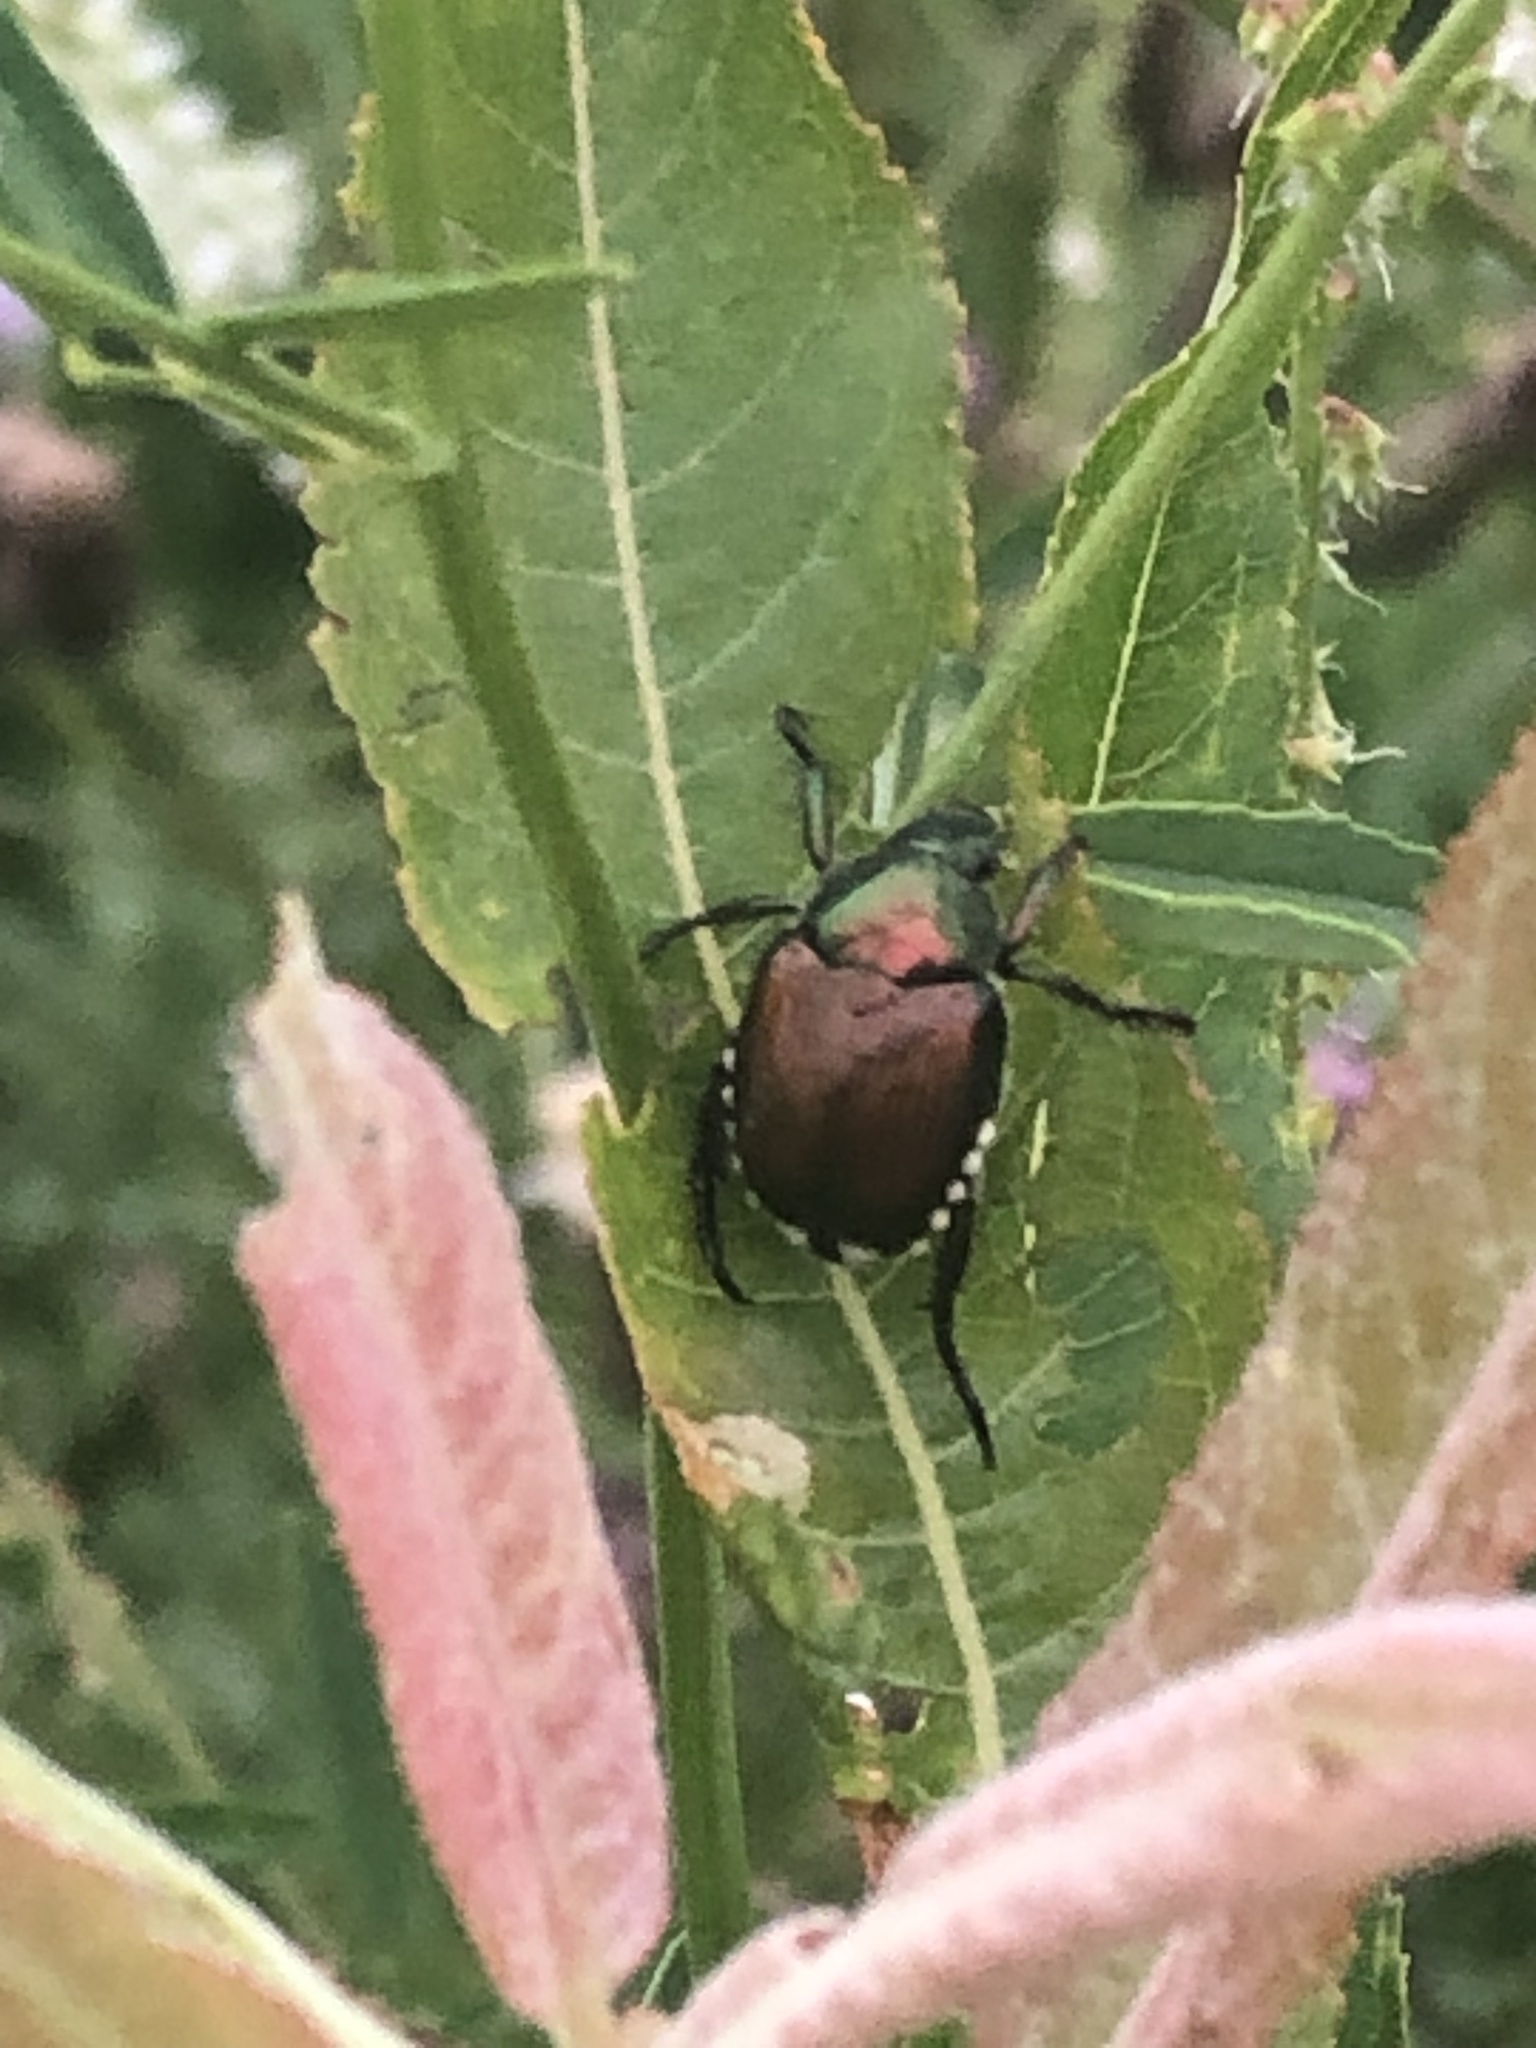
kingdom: Animalia
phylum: Arthropoda
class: Insecta
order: Coleoptera
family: Scarabaeidae
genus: Popillia
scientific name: Popillia japonica
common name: Japanese beetle
